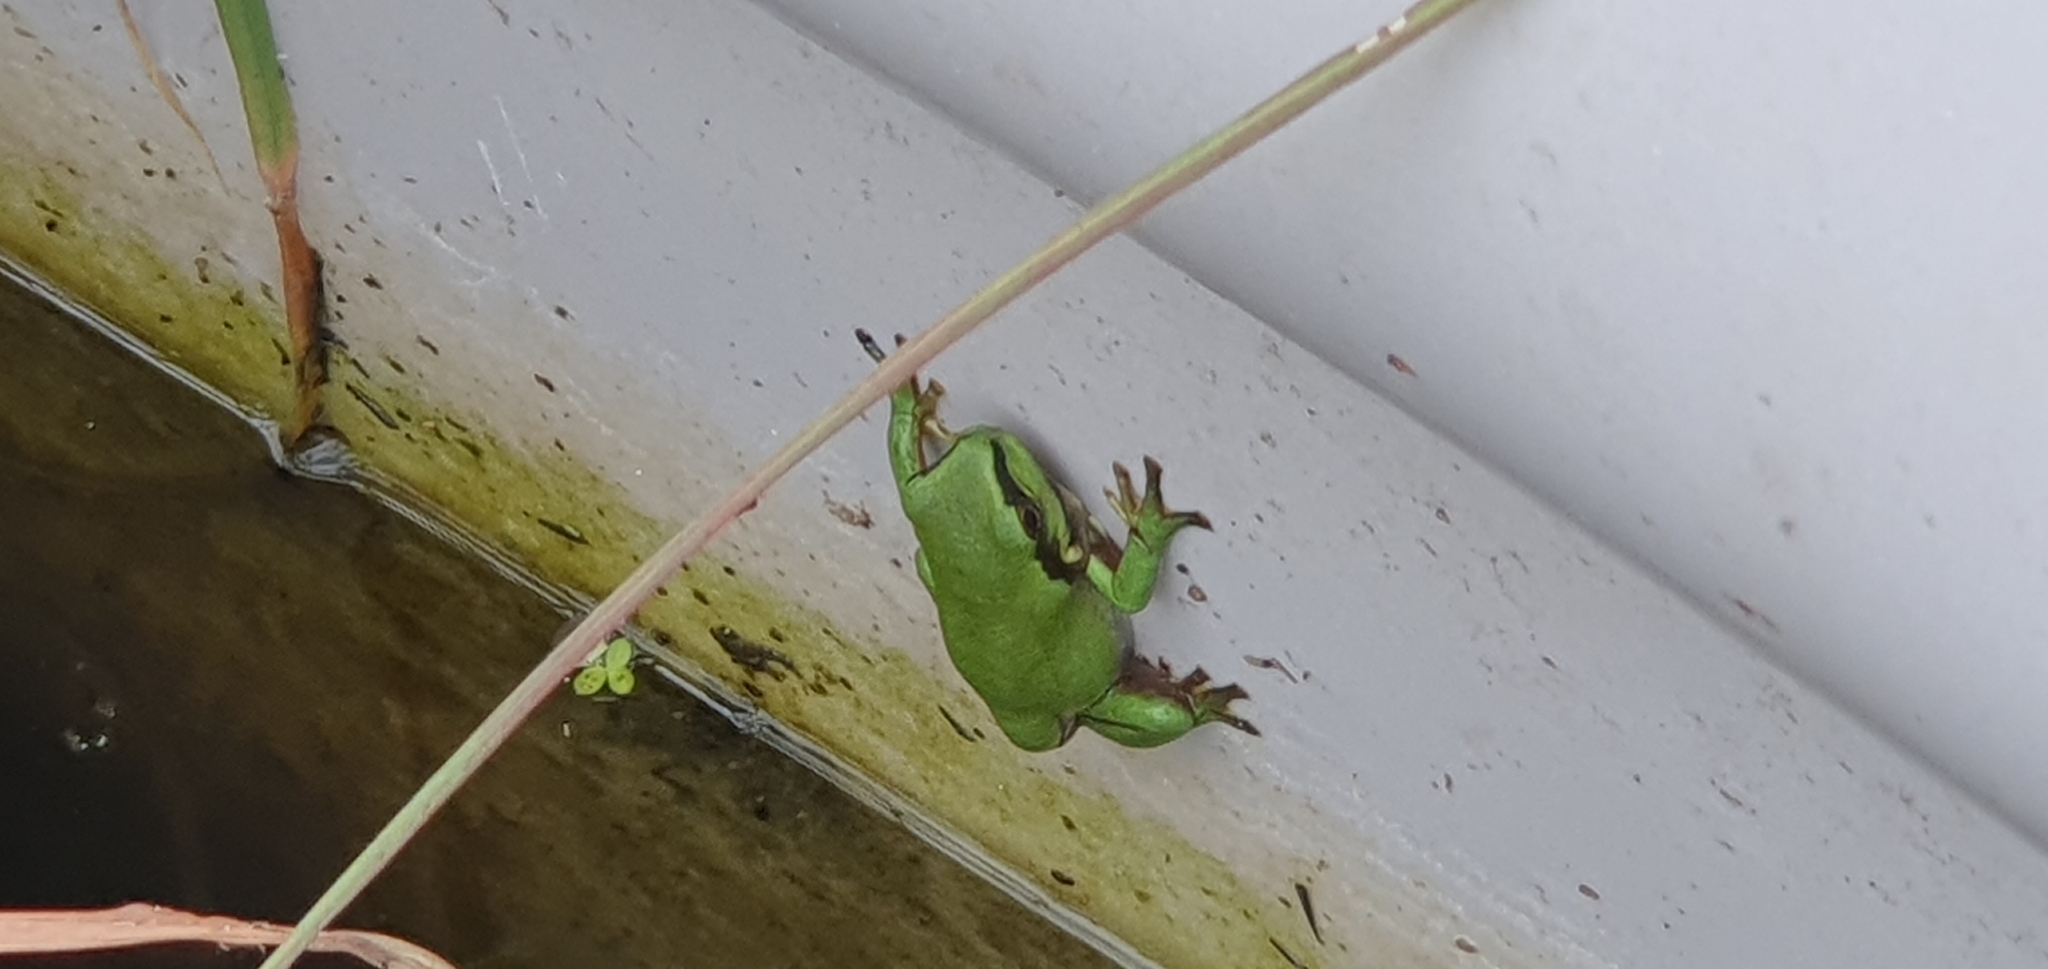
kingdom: Animalia
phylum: Chordata
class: Amphibia
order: Anura
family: Pelodryadidae
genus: Ranoidea
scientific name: Ranoidea caerulea
